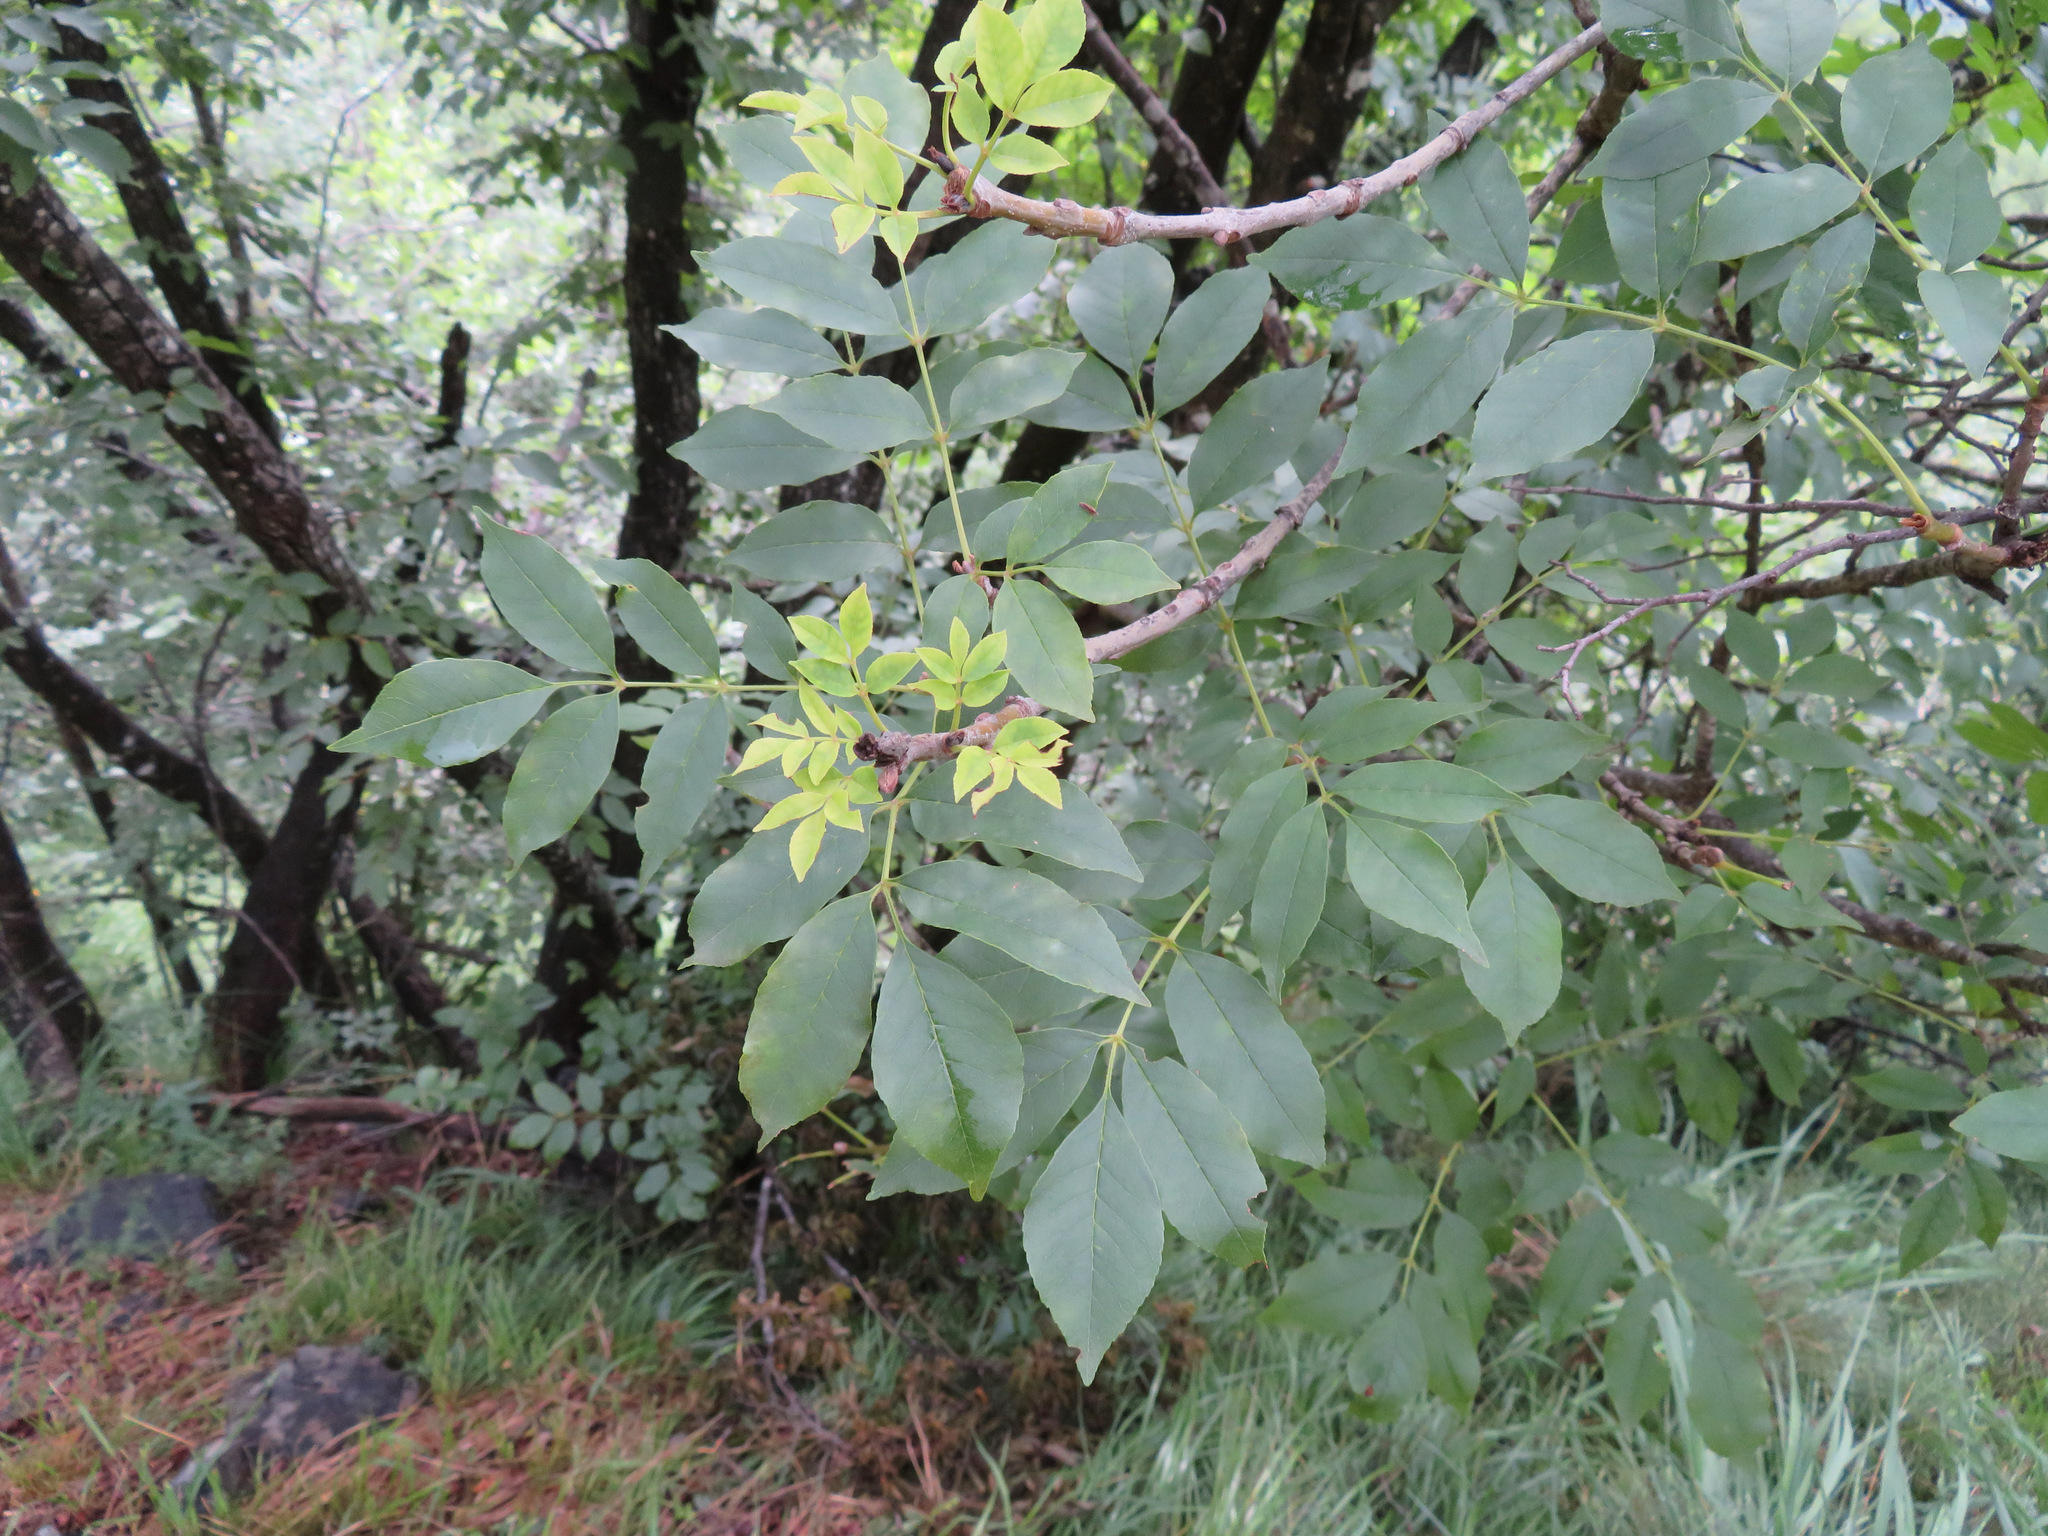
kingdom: Plantae
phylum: Tracheophyta
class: Magnoliopsida
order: Lamiales
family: Oleaceae
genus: Fraxinus
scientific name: Fraxinus ornus
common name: Manna ash
